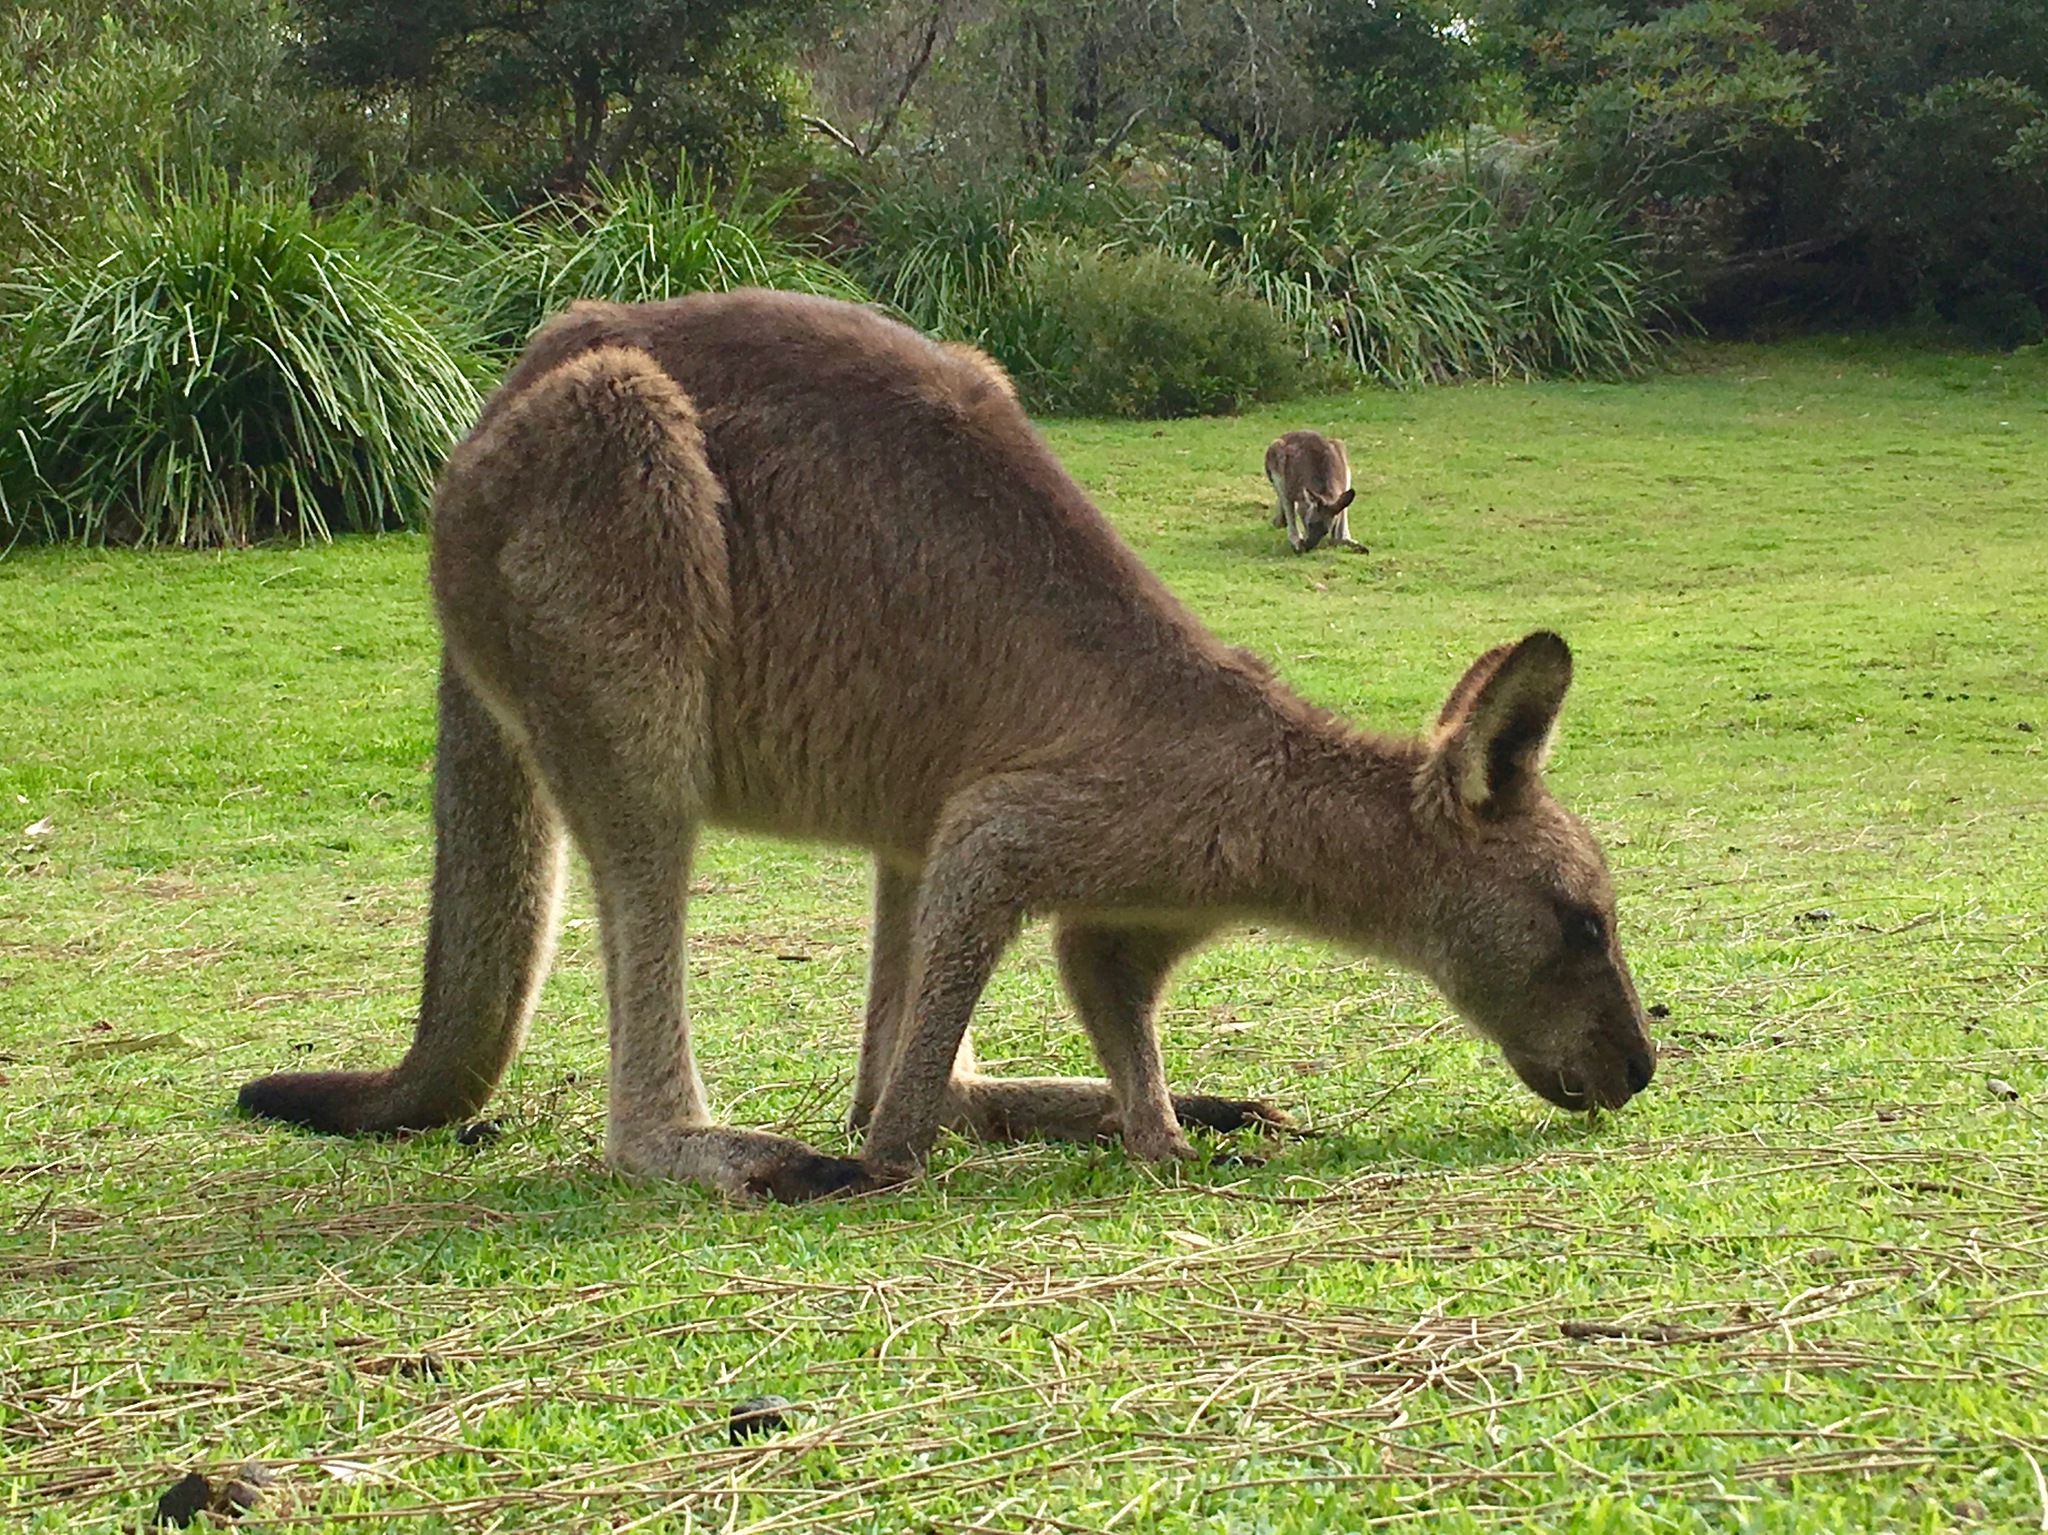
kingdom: Animalia
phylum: Chordata
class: Mammalia
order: Diprotodontia
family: Macropodidae
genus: Macropus
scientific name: Macropus giganteus
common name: Eastern grey kangaroo
